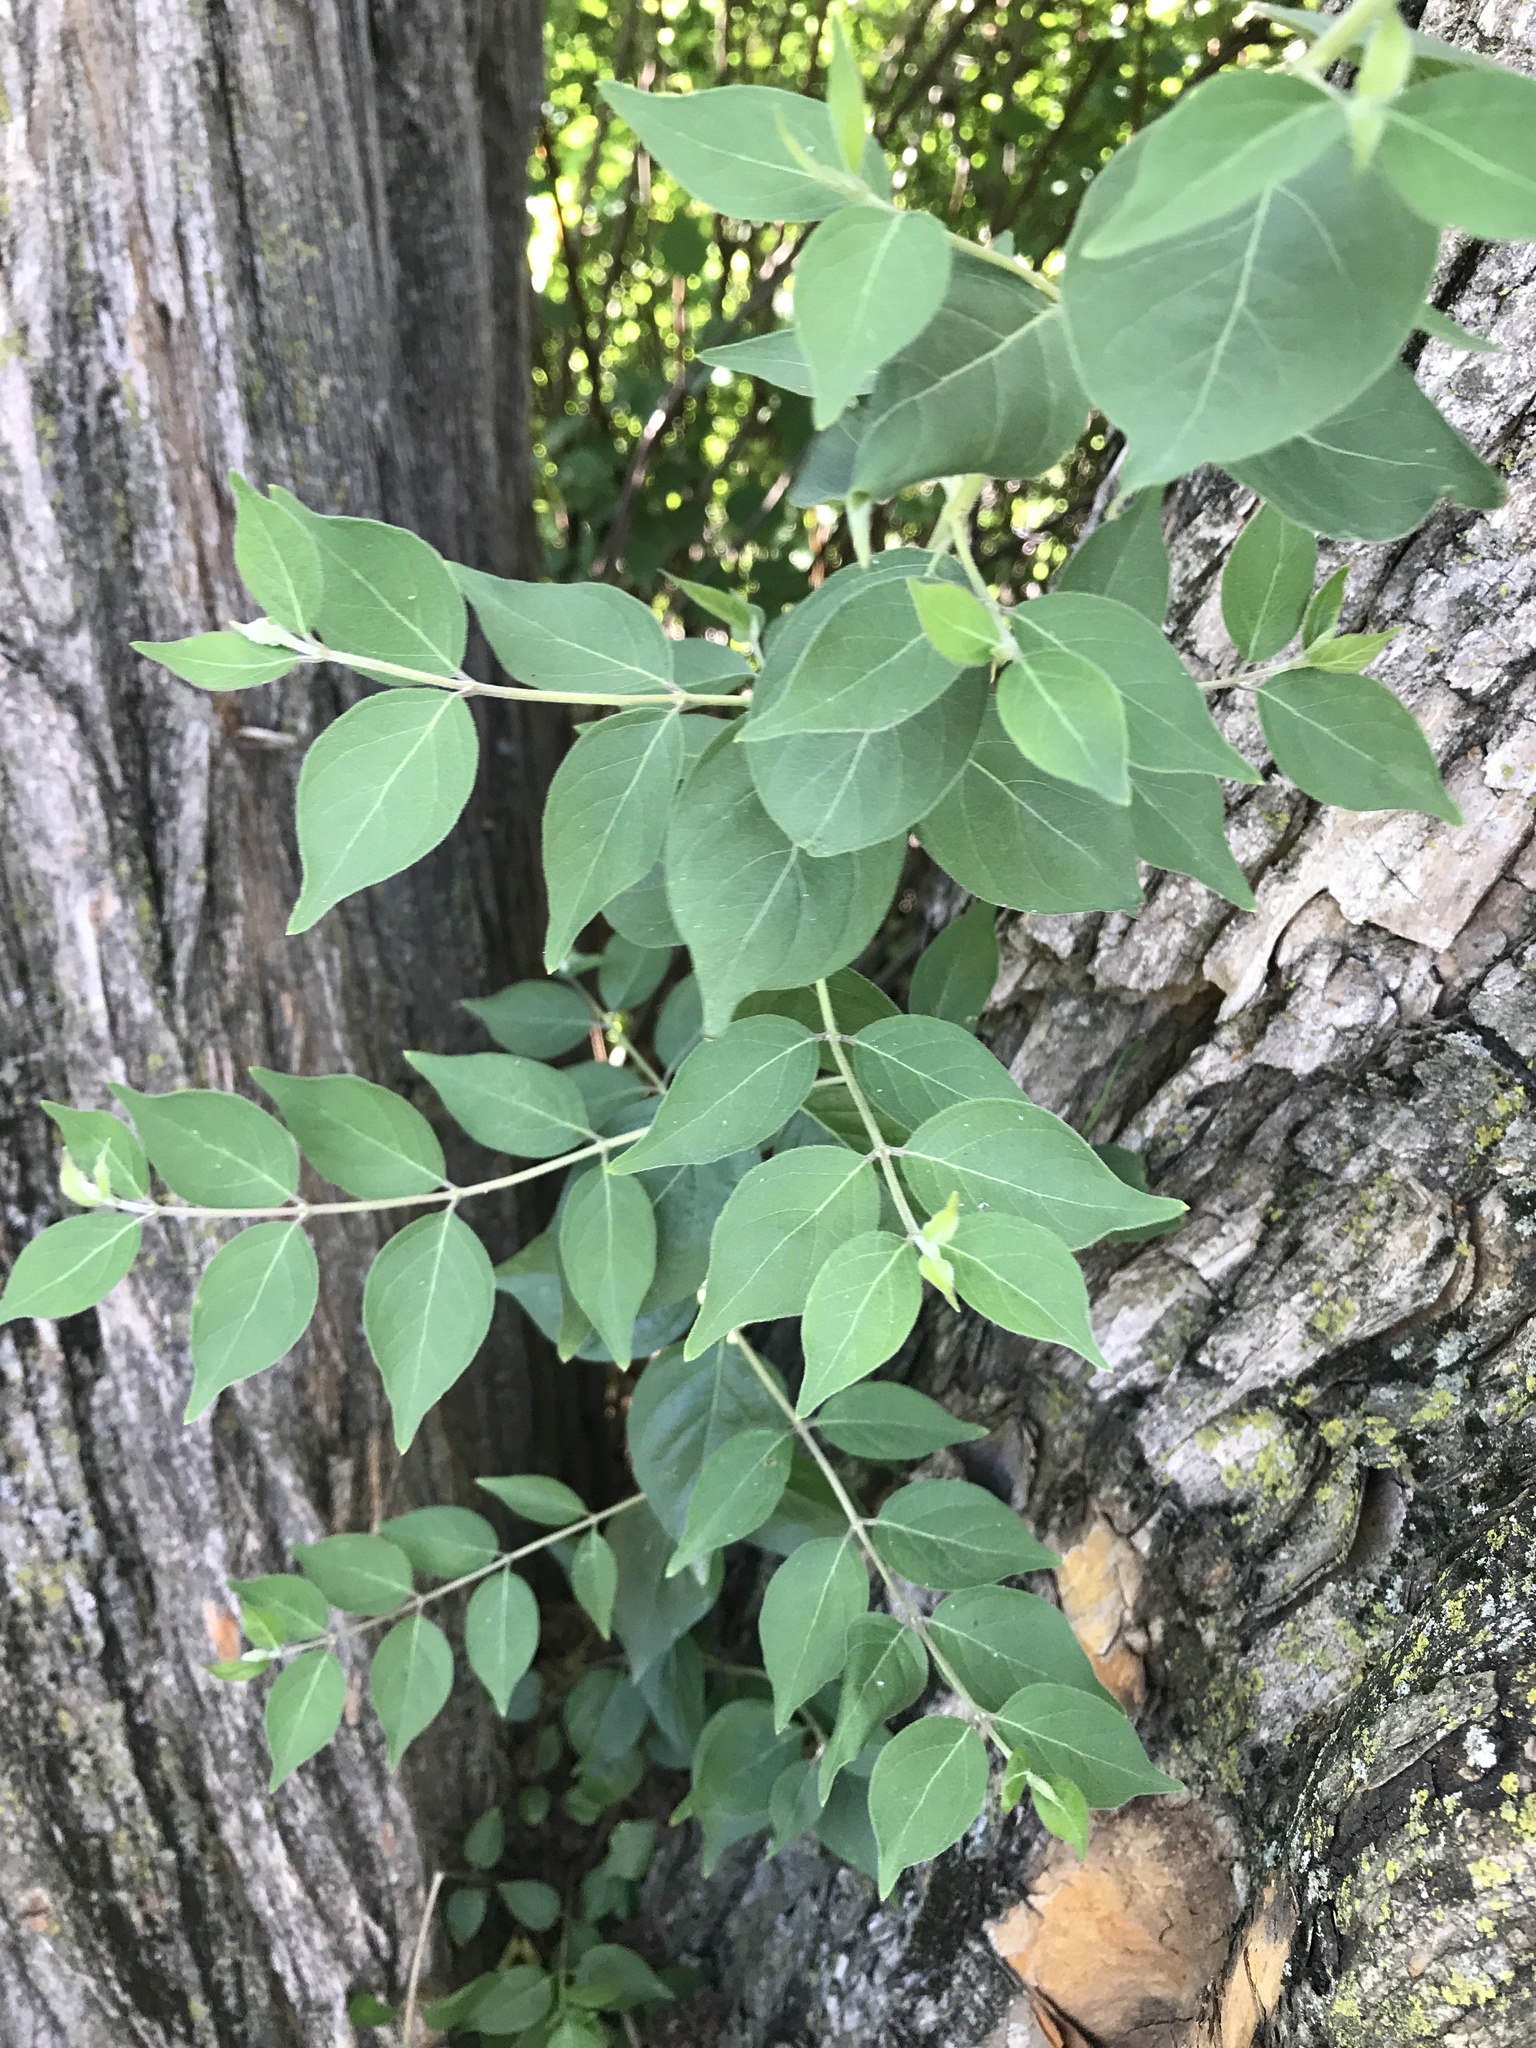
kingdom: Plantae
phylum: Tracheophyta
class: Magnoliopsida
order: Dipsacales
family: Caprifoliaceae
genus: Lonicera
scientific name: Lonicera maackii
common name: Amur honeysuckle
